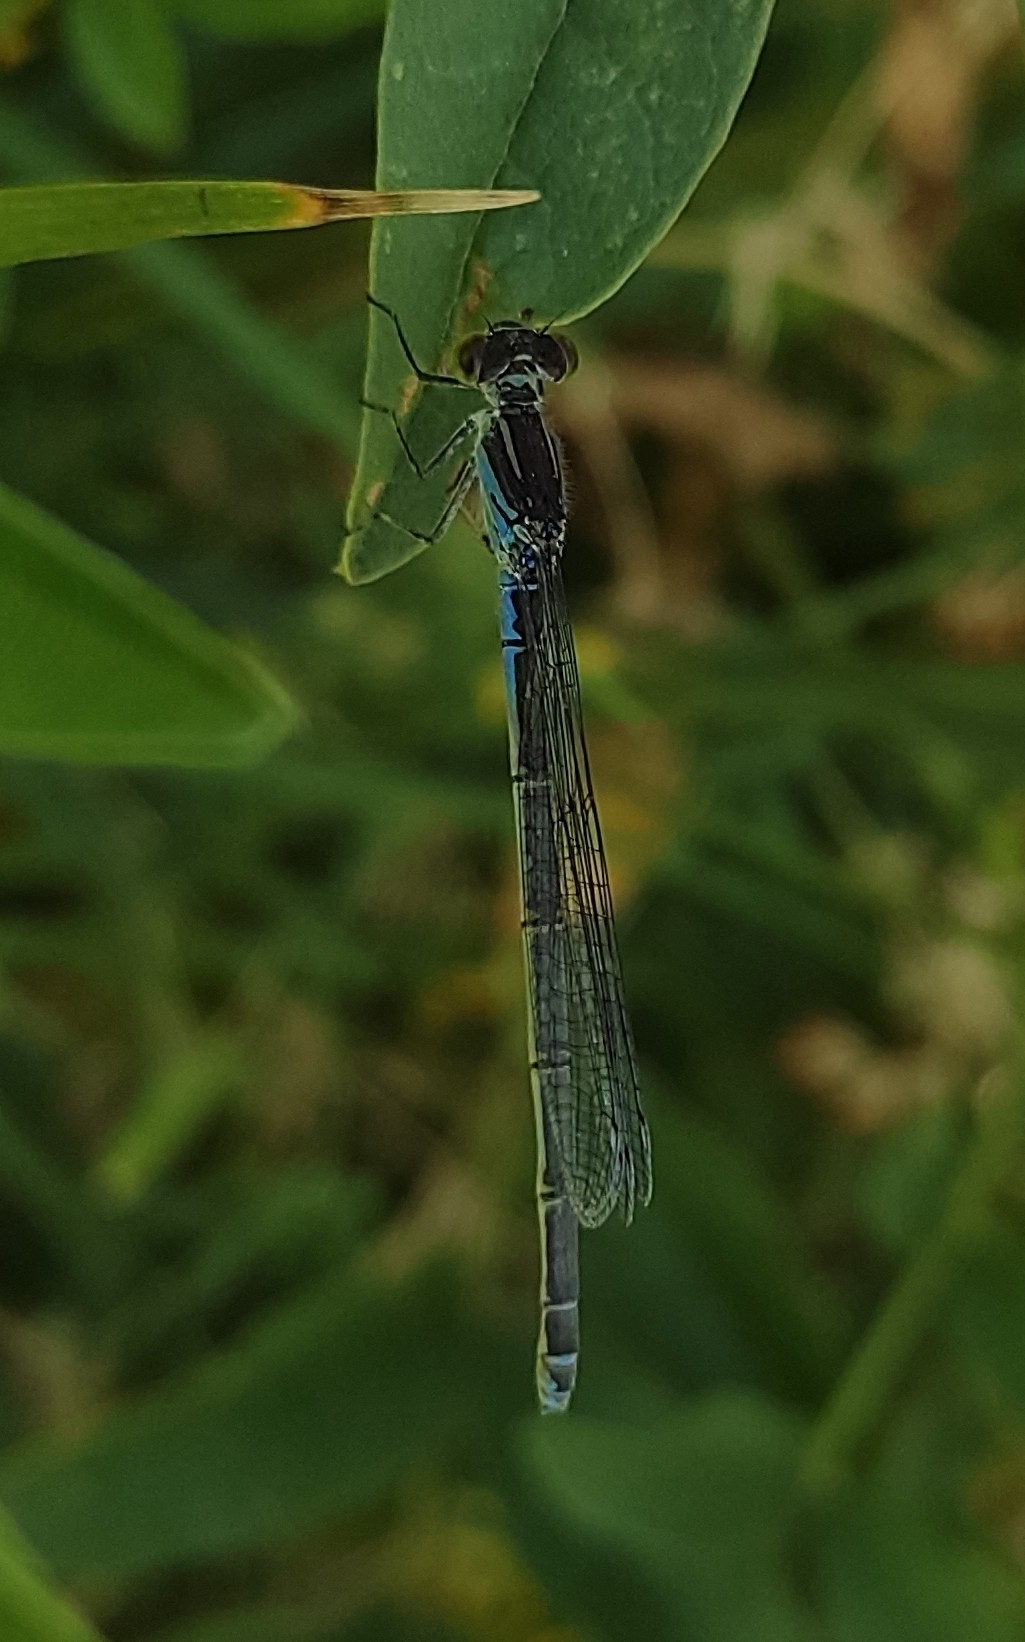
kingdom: Animalia
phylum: Arthropoda
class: Insecta
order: Odonata
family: Coenagrionidae
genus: Erythromma
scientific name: Erythromma viridulum
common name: Small red-eyed damselfly
